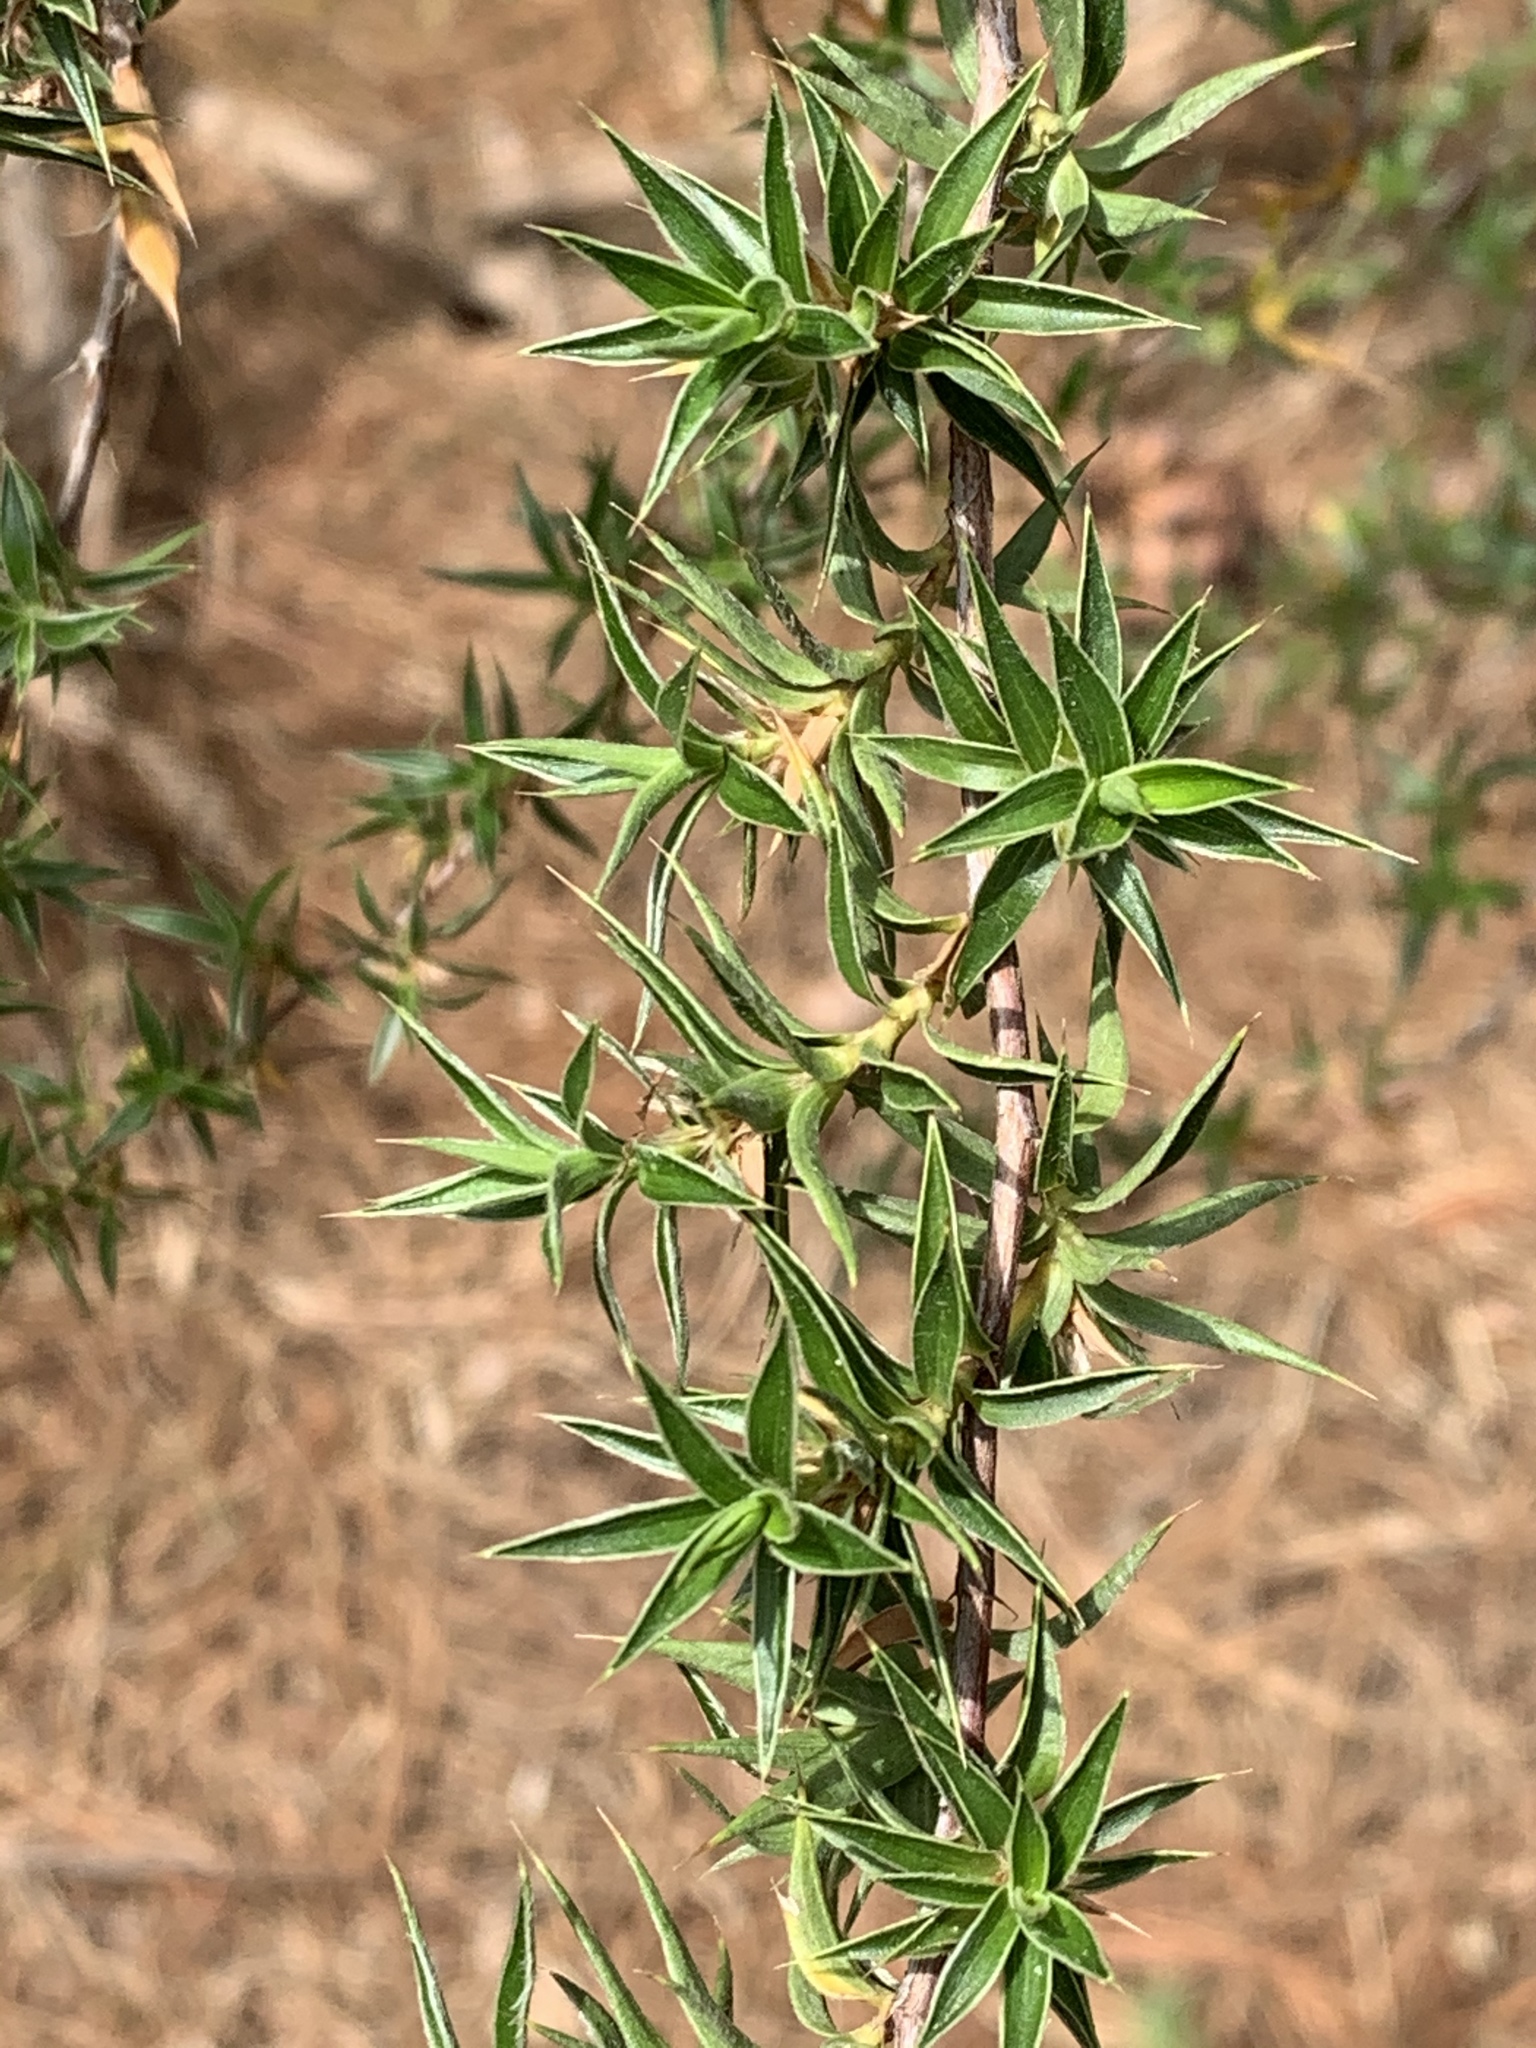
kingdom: Plantae
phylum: Tracheophyta
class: Magnoliopsida
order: Rosales
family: Rosaceae
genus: Cliffortia
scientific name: Cliffortia ruscifolia
